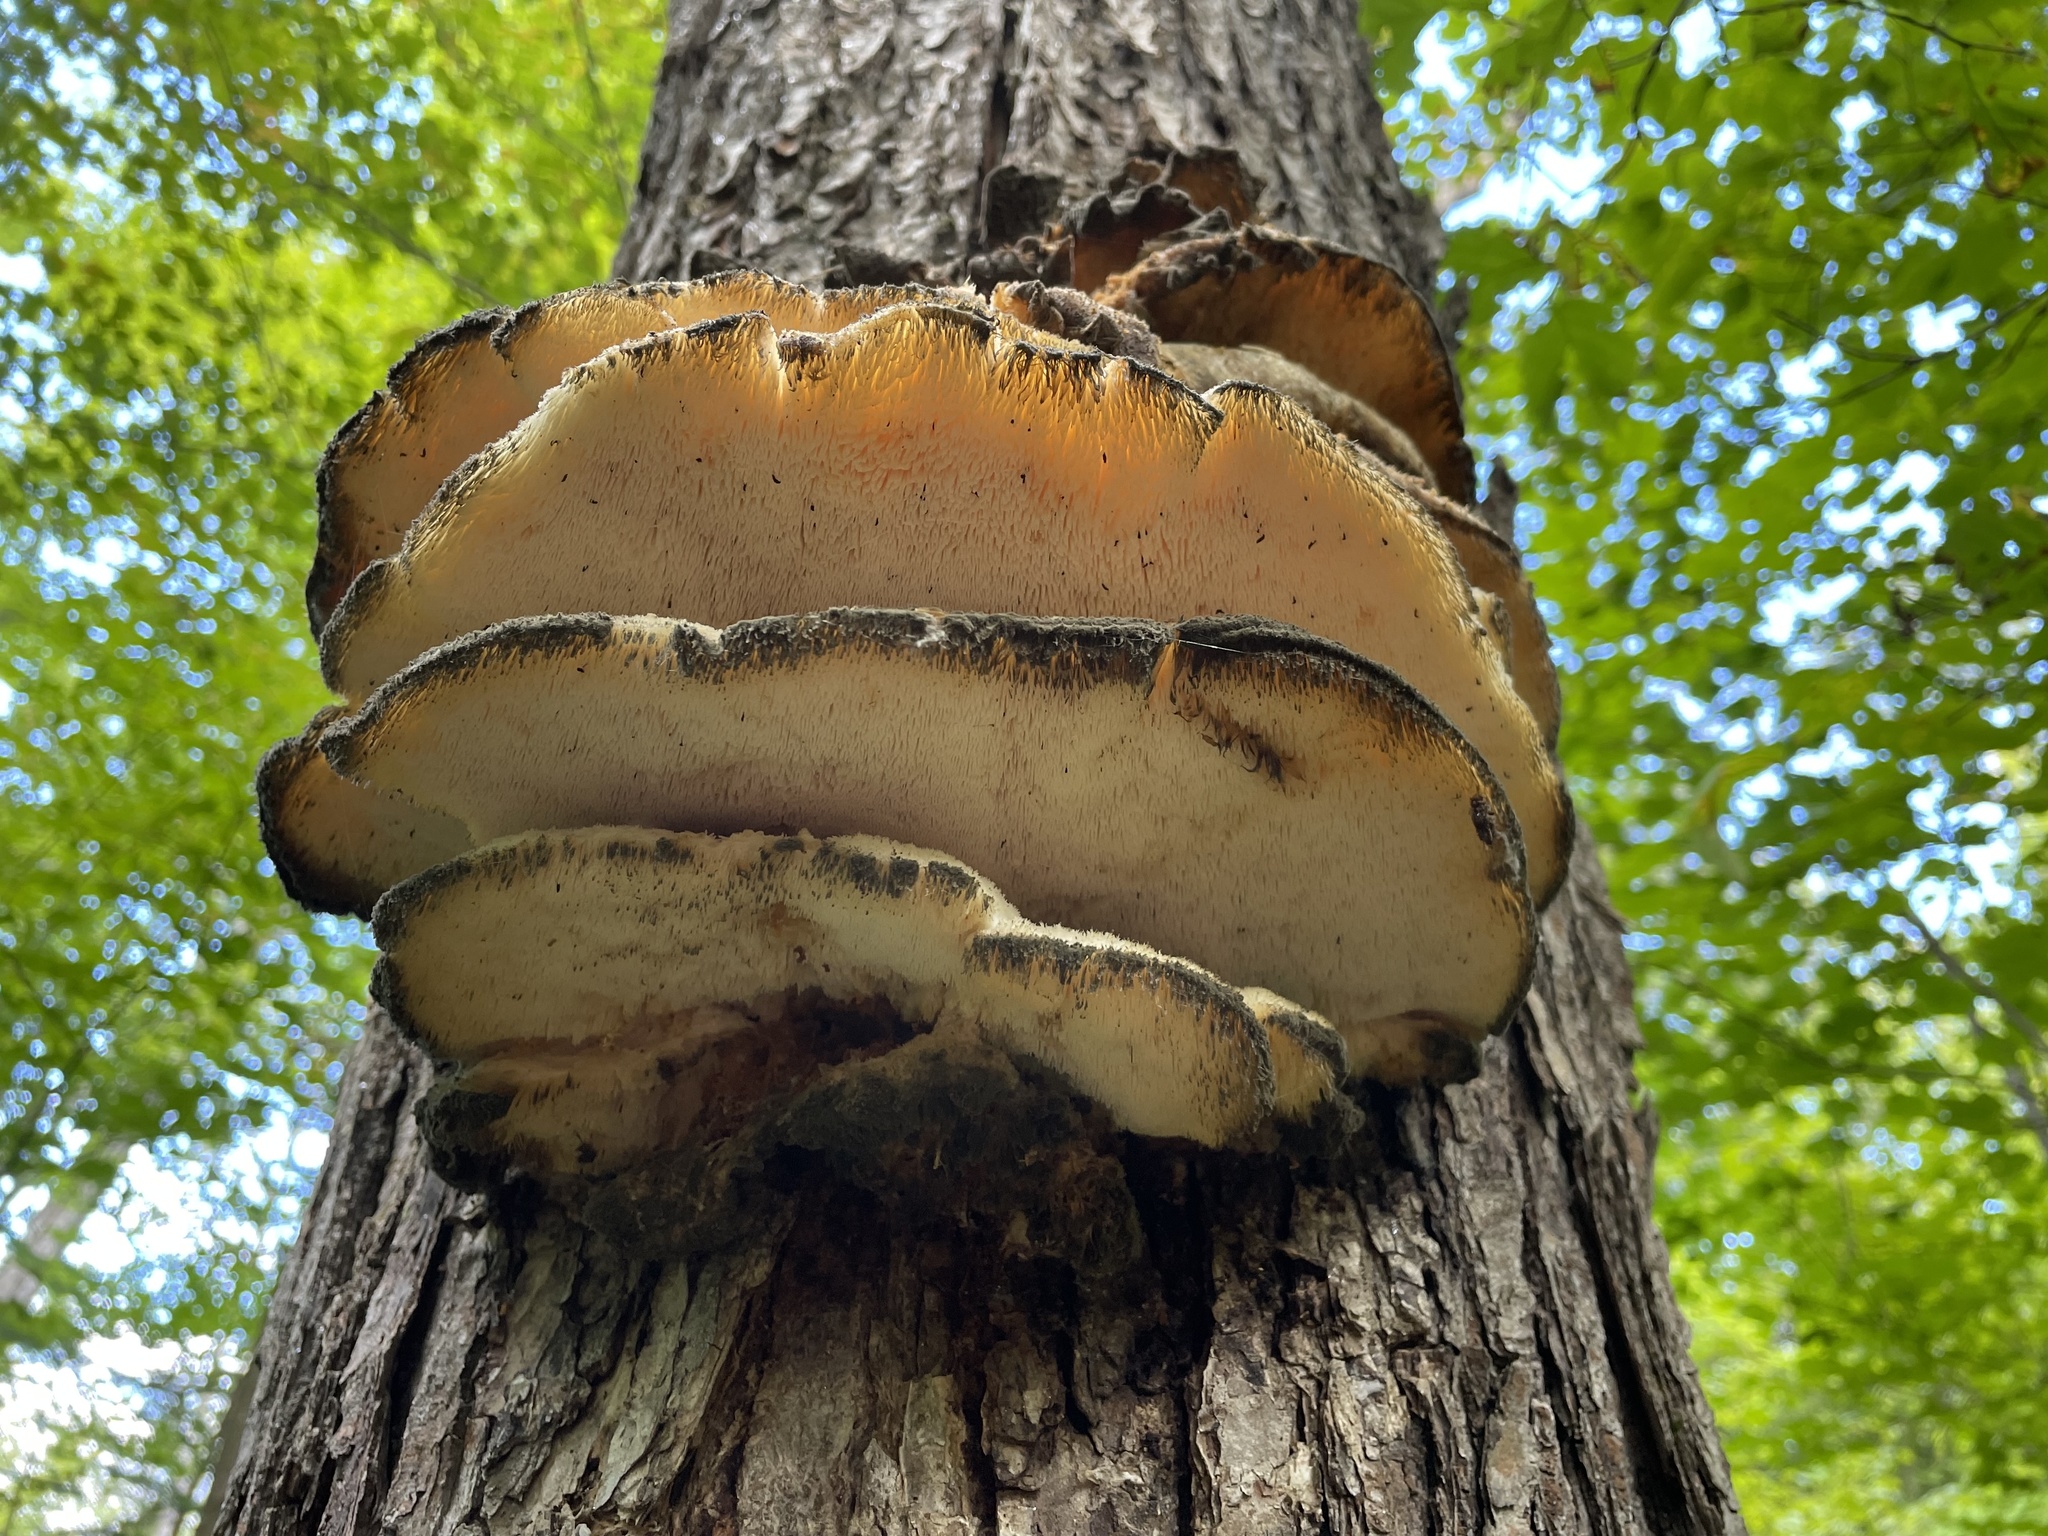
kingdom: Fungi
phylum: Basidiomycota
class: Agaricomycetes
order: Polyporales
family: Meruliaceae
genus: Climacodon
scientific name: Climacodon septentrionalis
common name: Northern tooth
